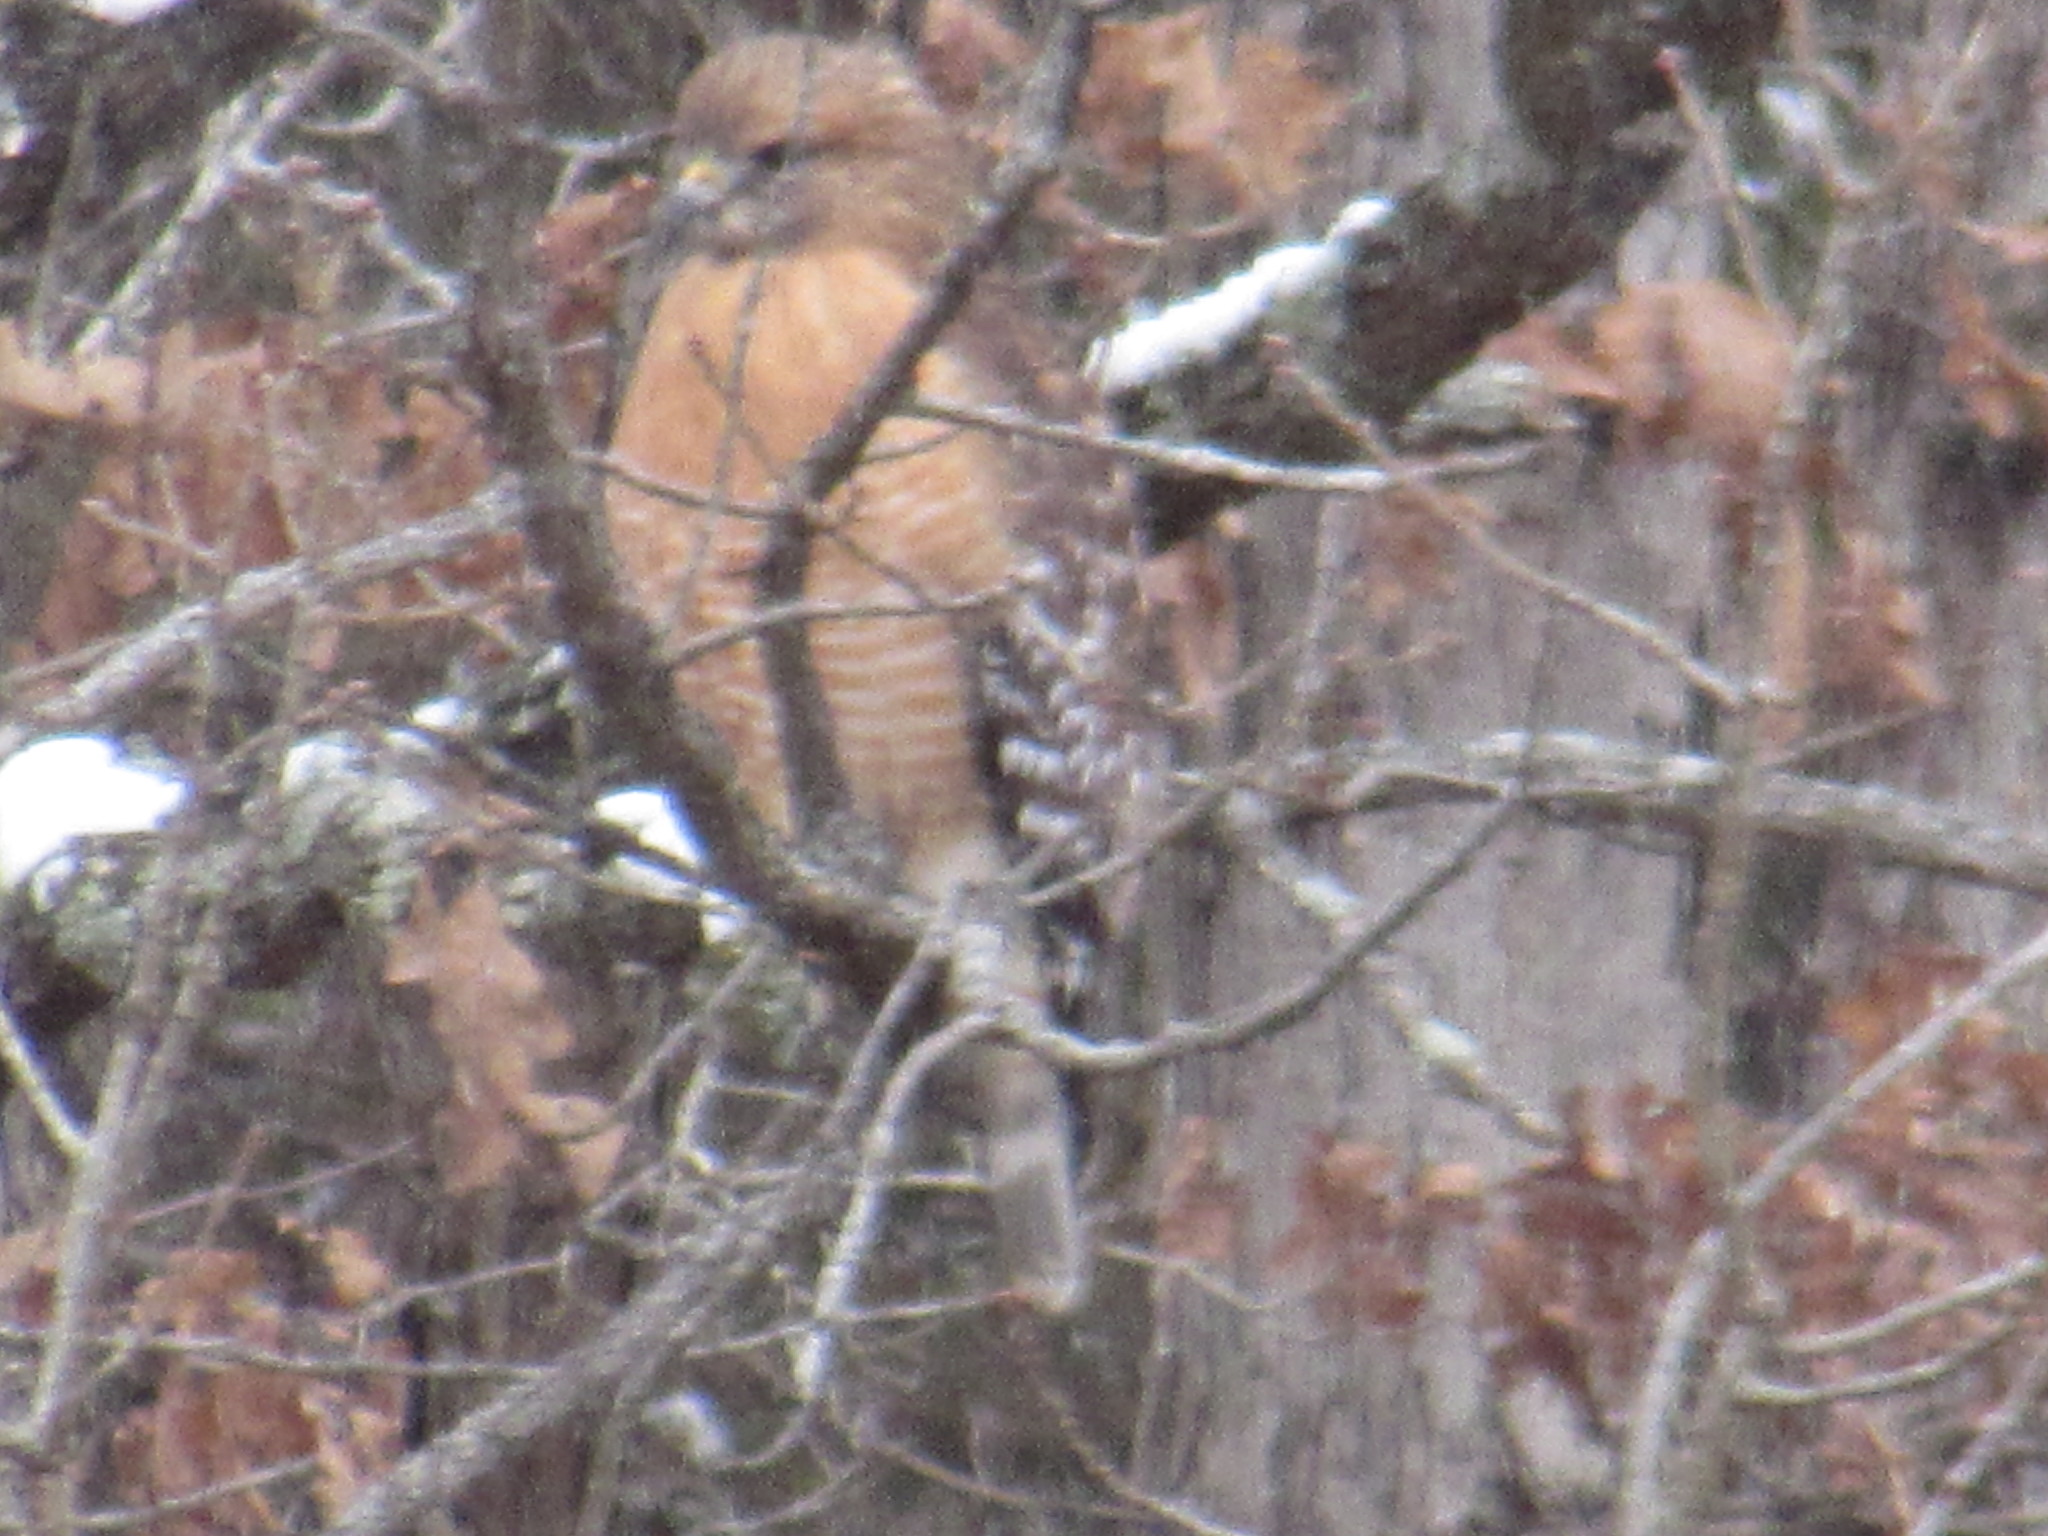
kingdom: Animalia
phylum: Chordata
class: Aves
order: Accipitriformes
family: Accipitridae
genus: Buteo
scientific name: Buteo lineatus
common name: Red-shouldered hawk
